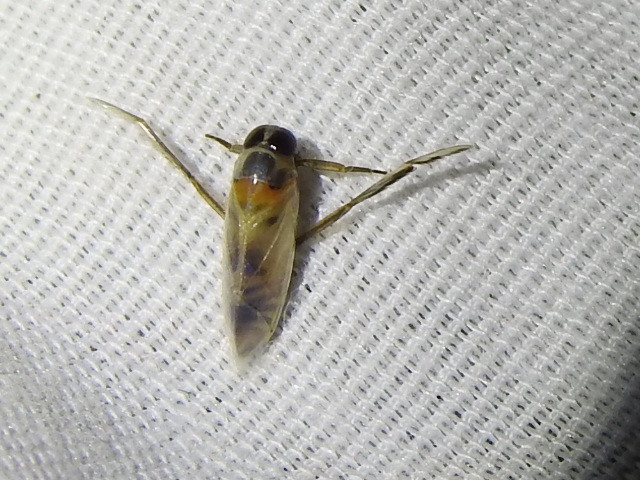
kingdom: Animalia
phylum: Arthropoda
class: Insecta
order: Hemiptera
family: Notonectidae
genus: Buenoa
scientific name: Buenoa
